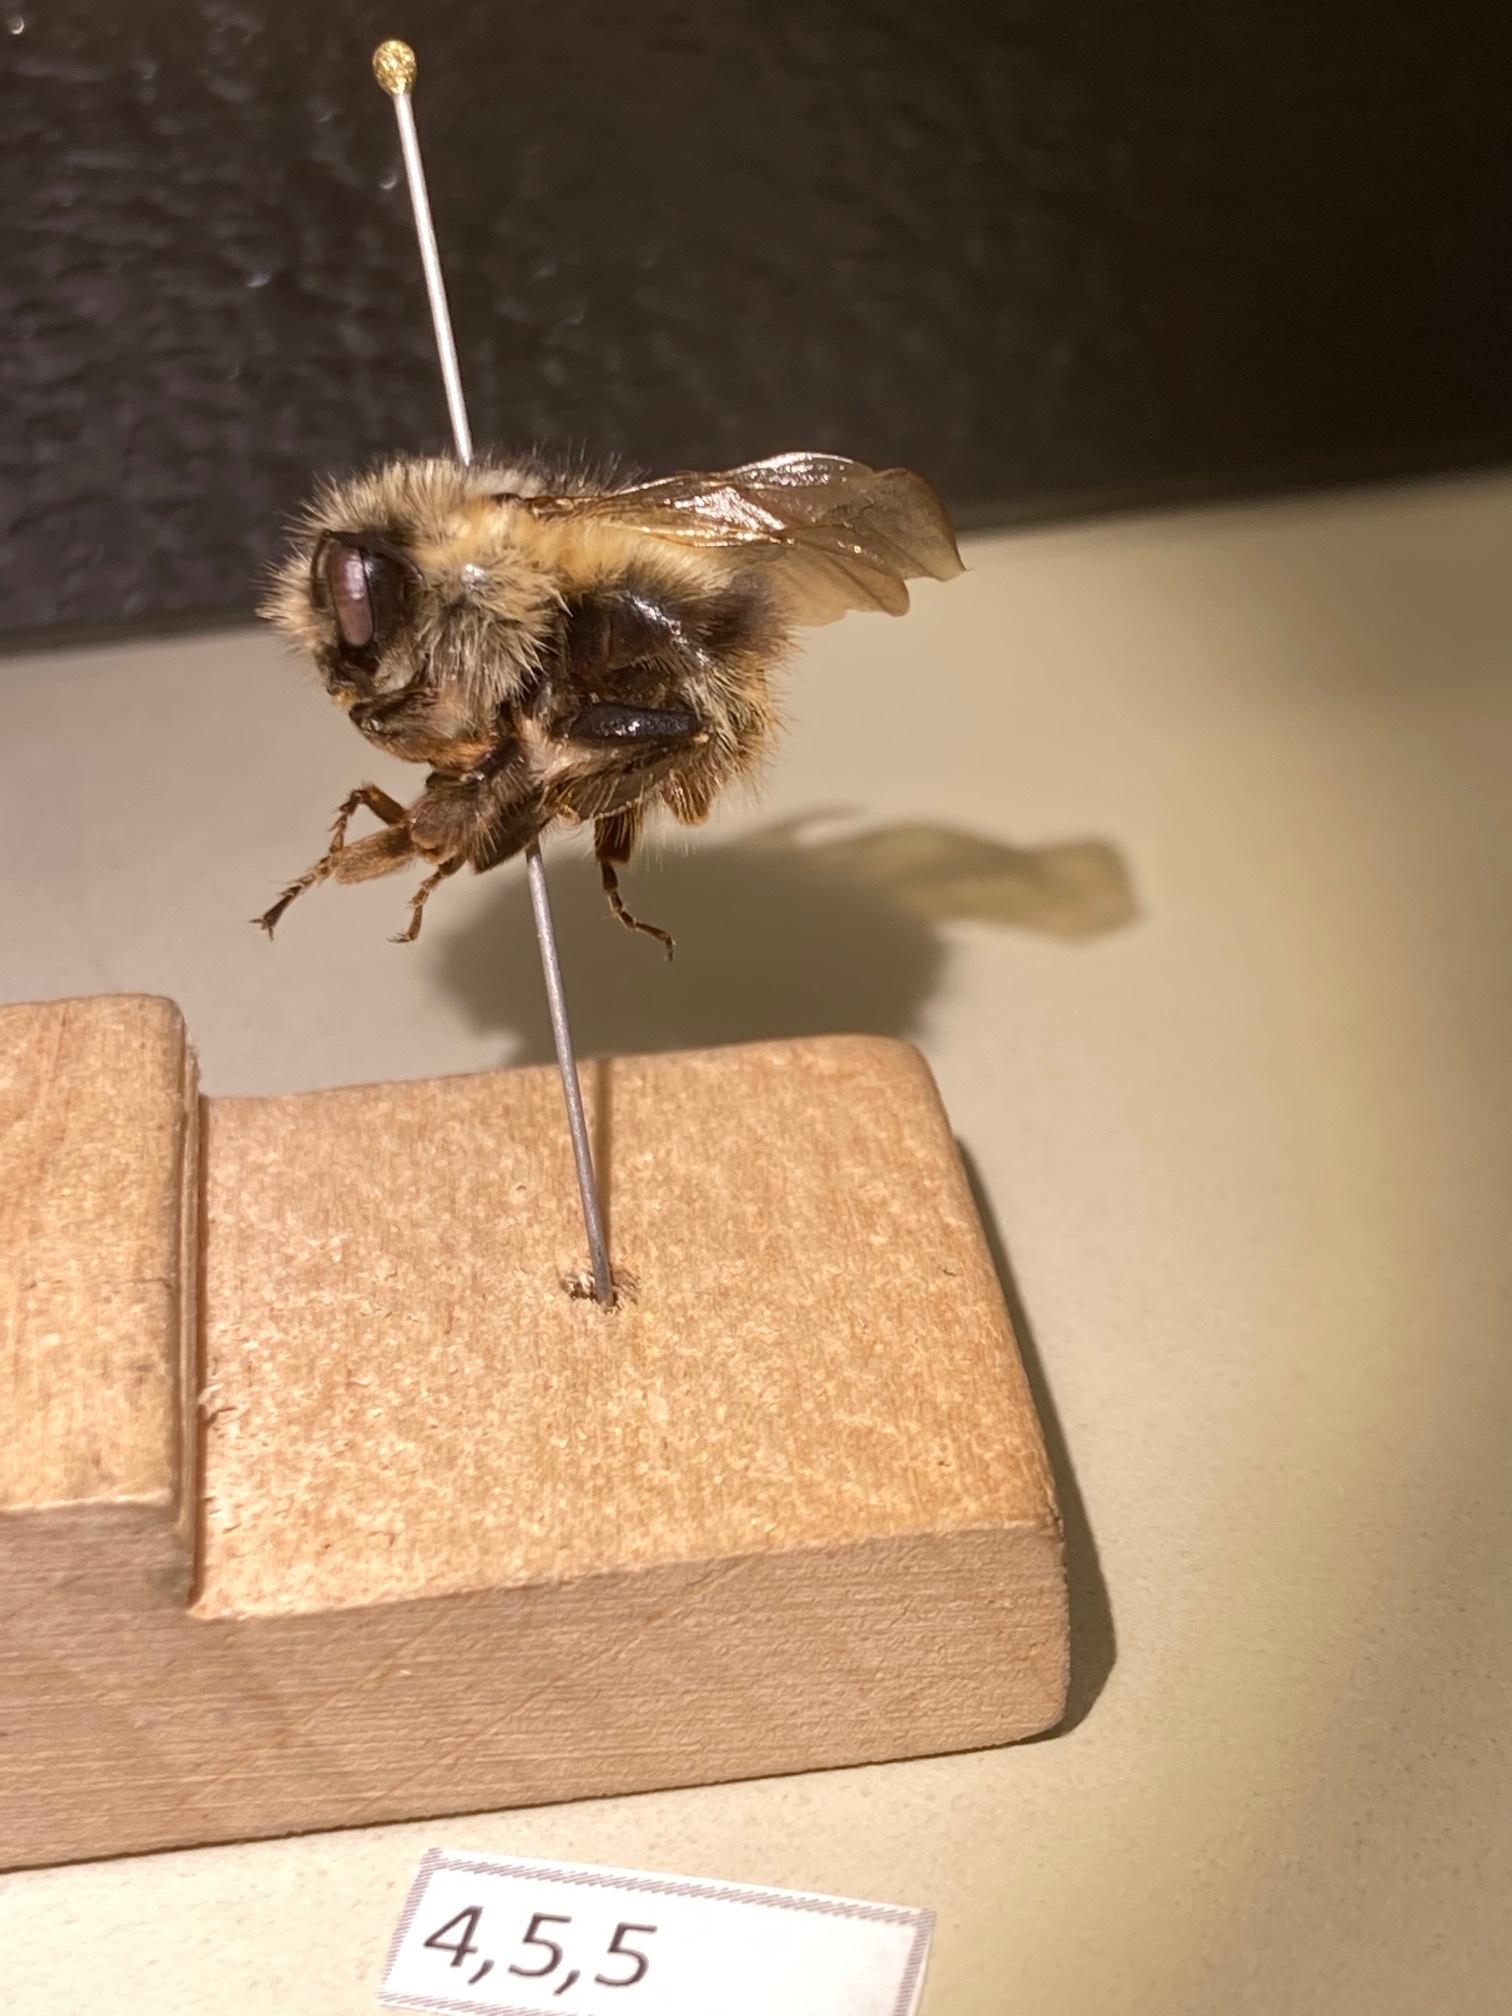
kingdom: Animalia
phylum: Arthropoda
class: Insecta
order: Hymenoptera
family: Apidae
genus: Bombus
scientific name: Bombus mixtus
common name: Fuzzy-horned bumble bee
